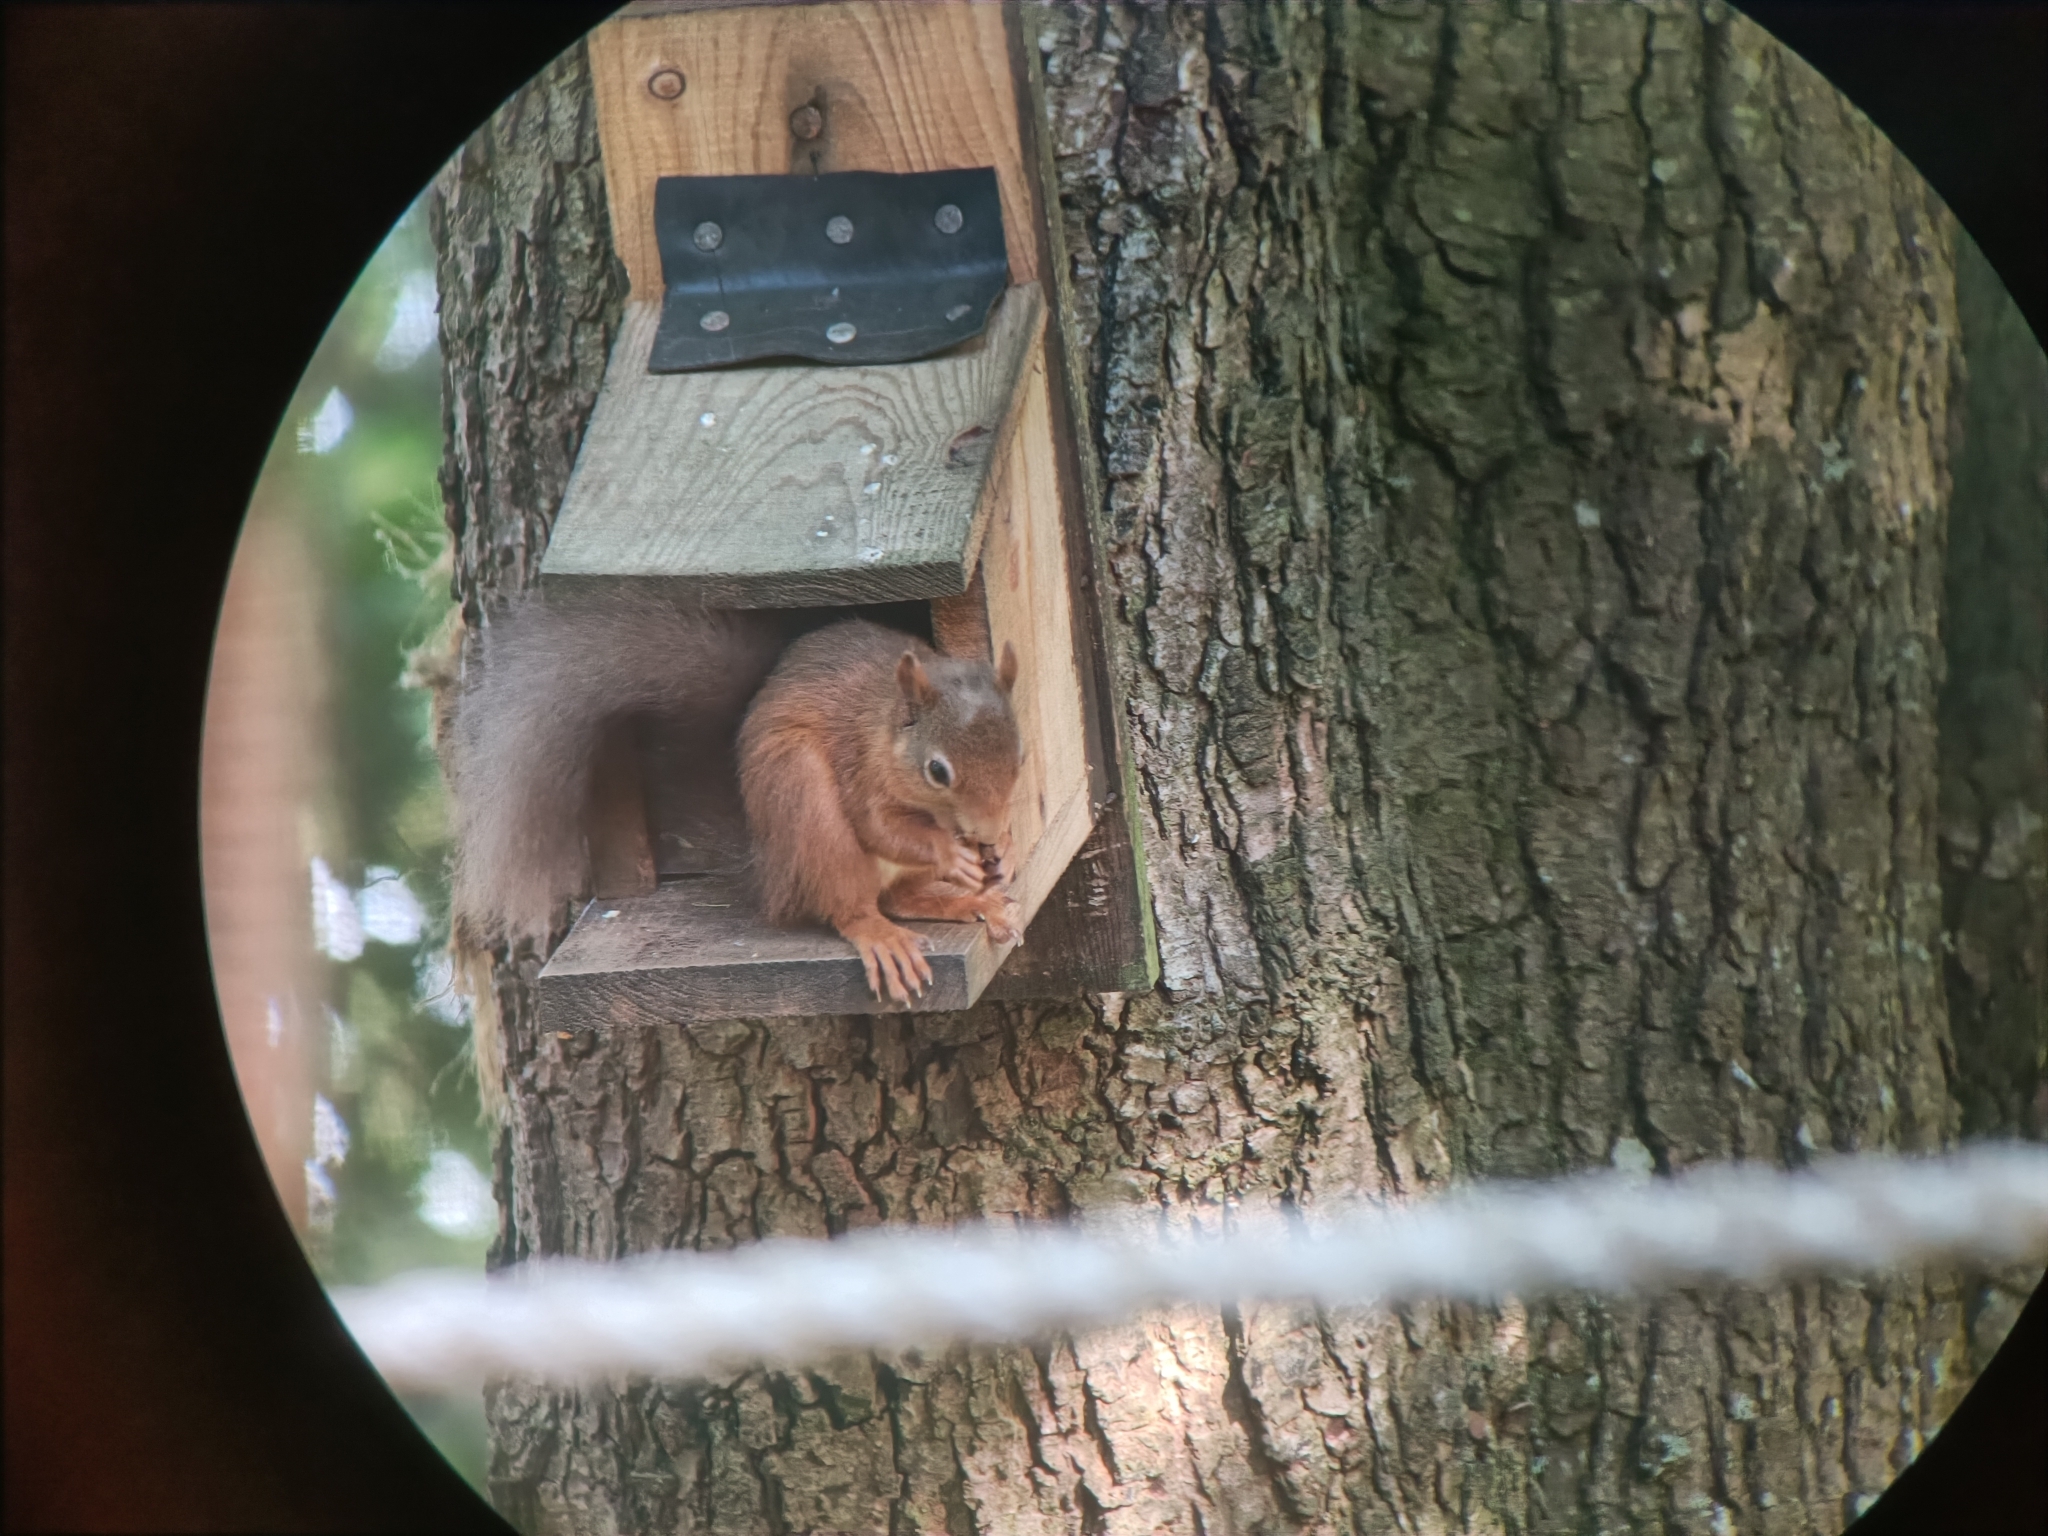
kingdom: Animalia
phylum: Chordata
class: Mammalia
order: Rodentia
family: Sciuridae
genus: Sciurus
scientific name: Sciurus vulgaris
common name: Eurasian red squirrel
